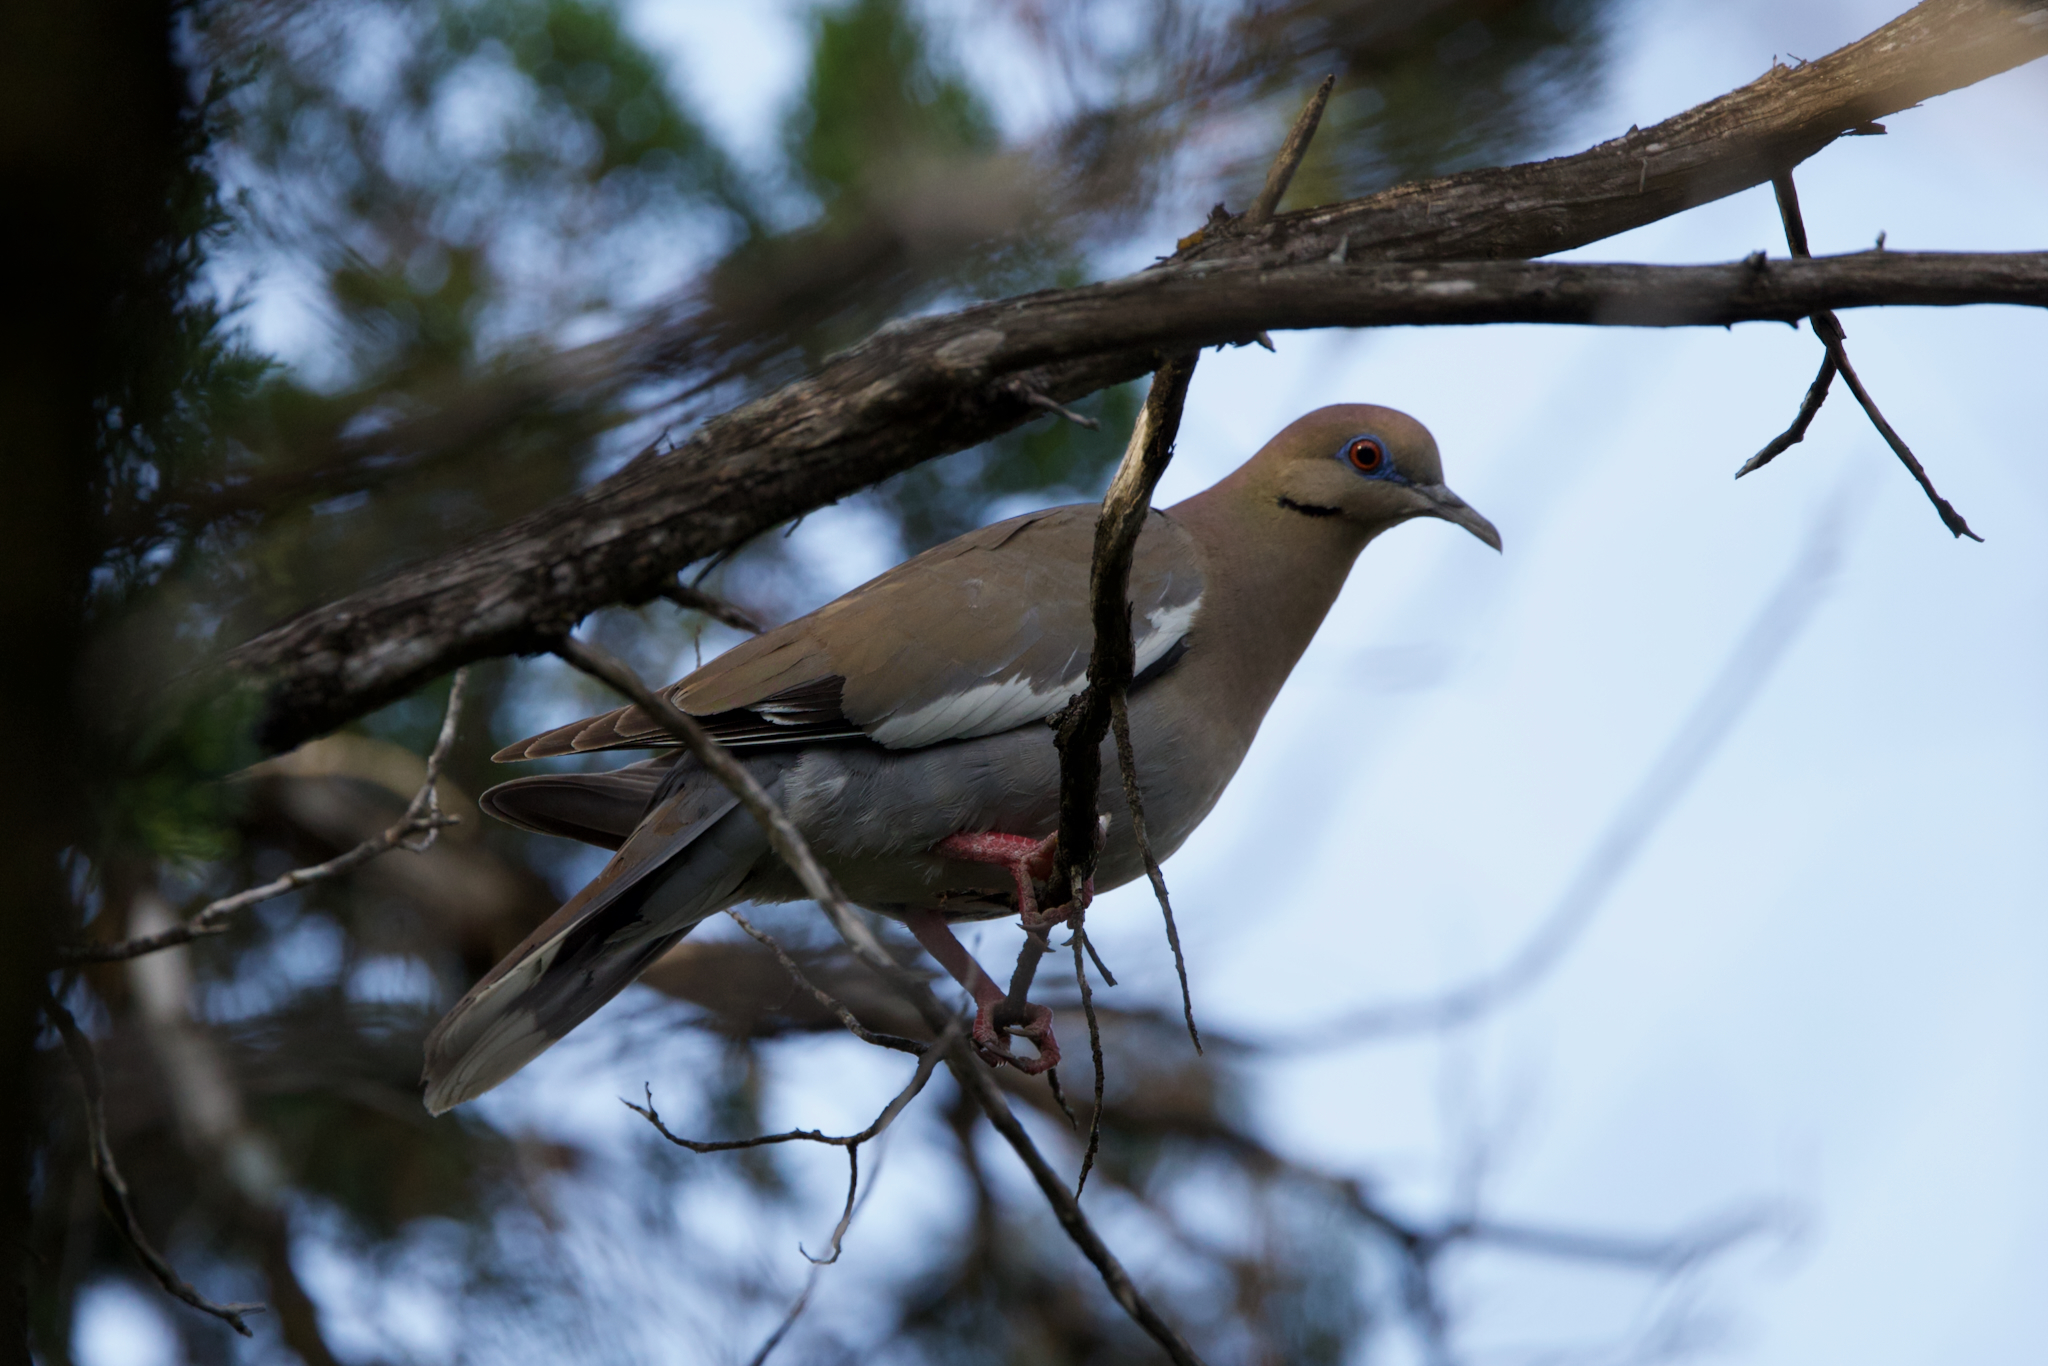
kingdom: Animalia
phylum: Chordata
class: Aves
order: Columbiformes
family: Columbidae
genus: Zenaida
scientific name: Zenaida asiatica
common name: White-winged dove
